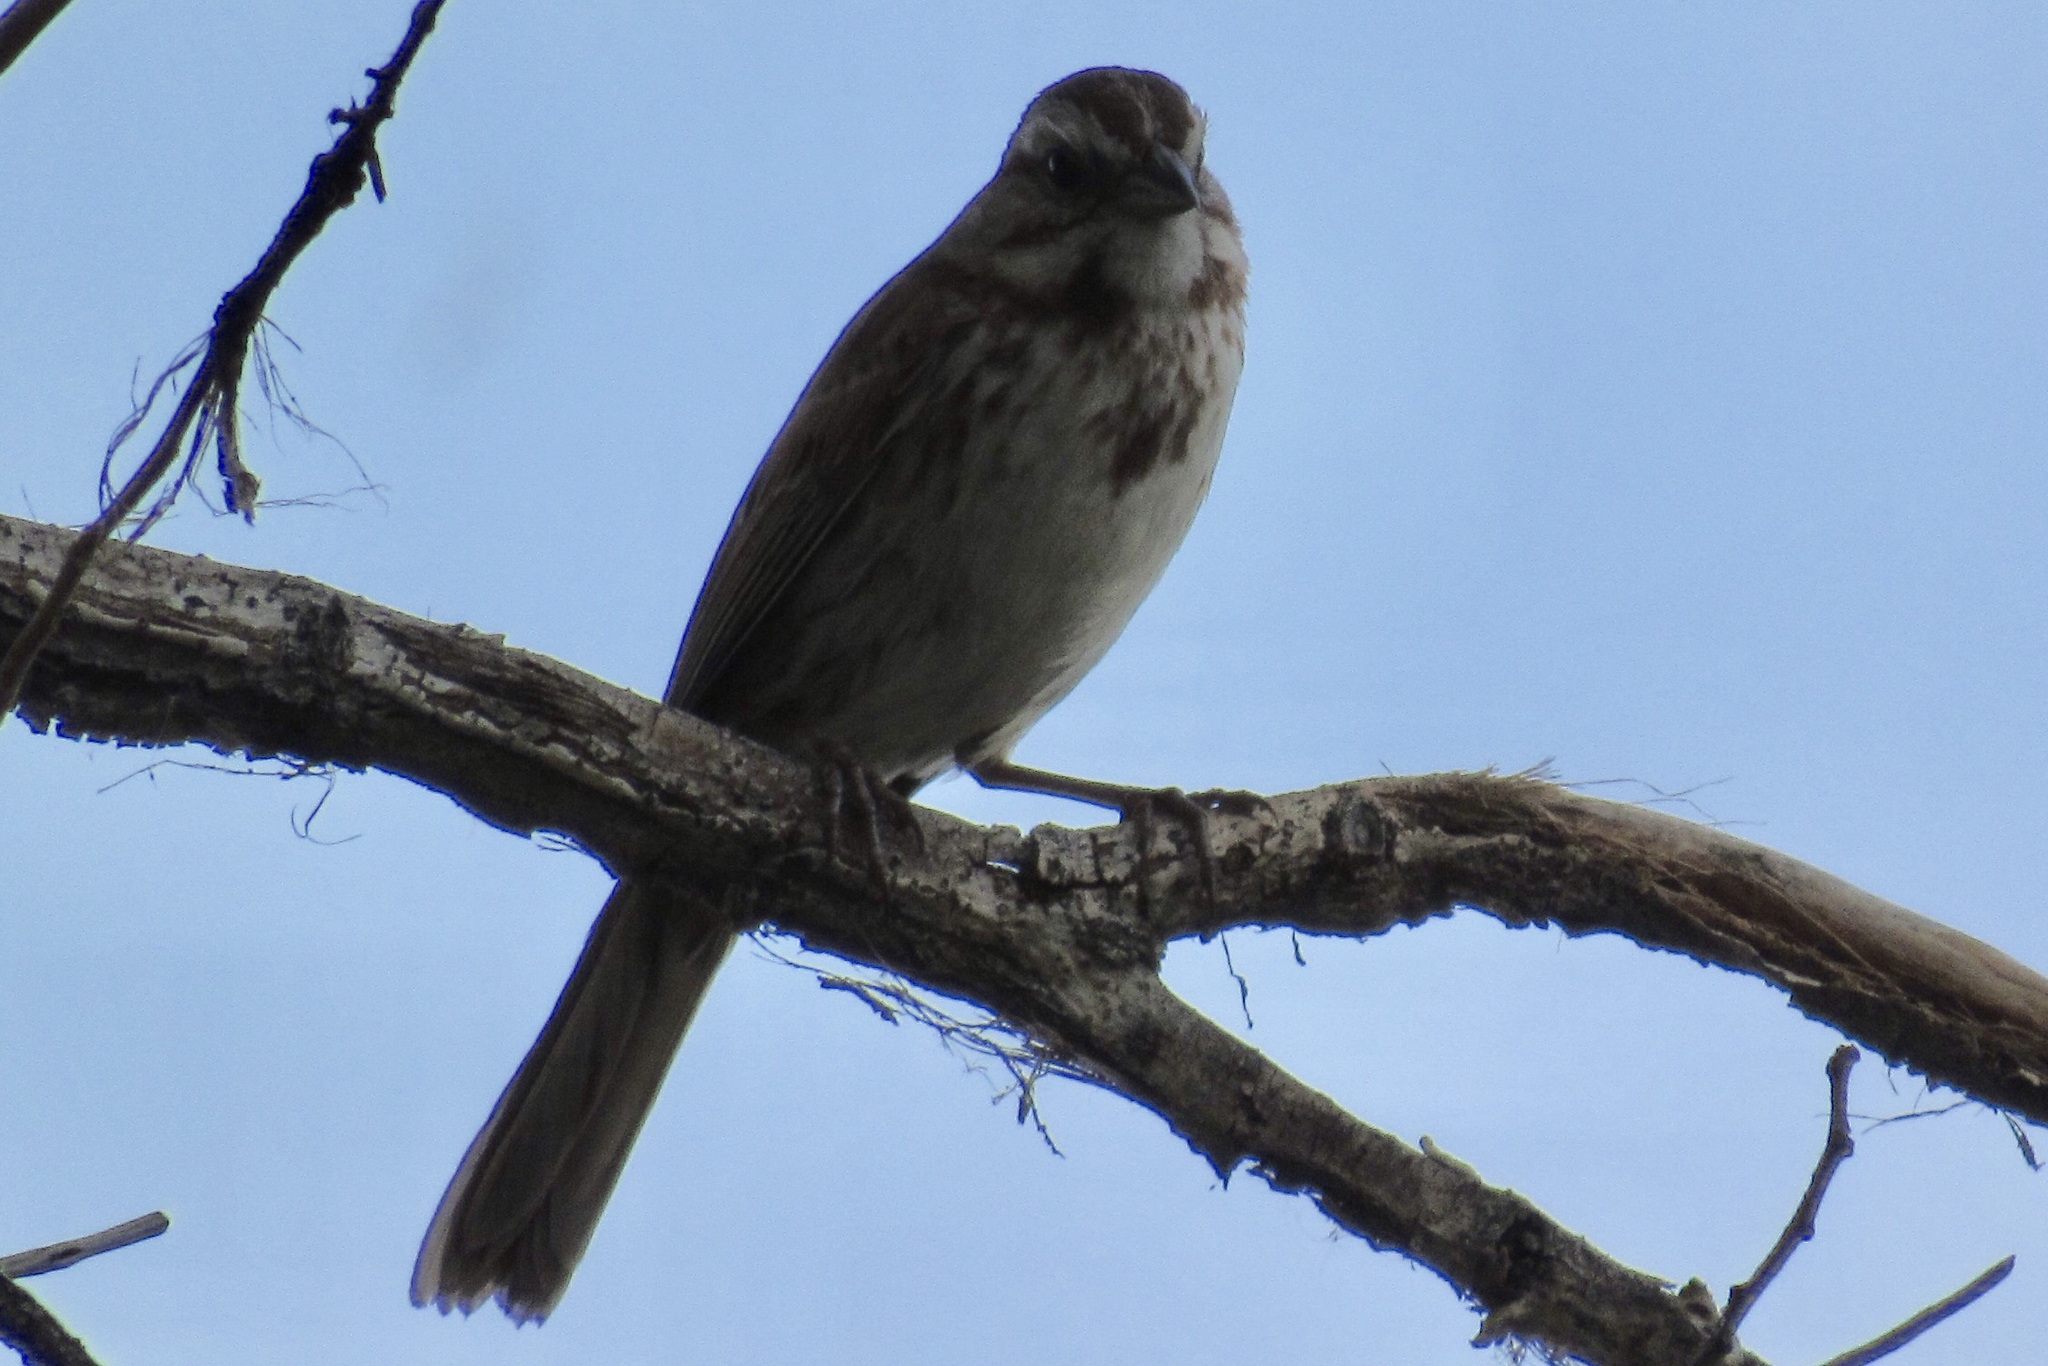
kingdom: Animalia
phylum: Chordata
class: Aves
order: Passeriformes
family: Passerellidae
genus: Melospiza
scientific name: Melospiza melodia
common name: Song sparrow
